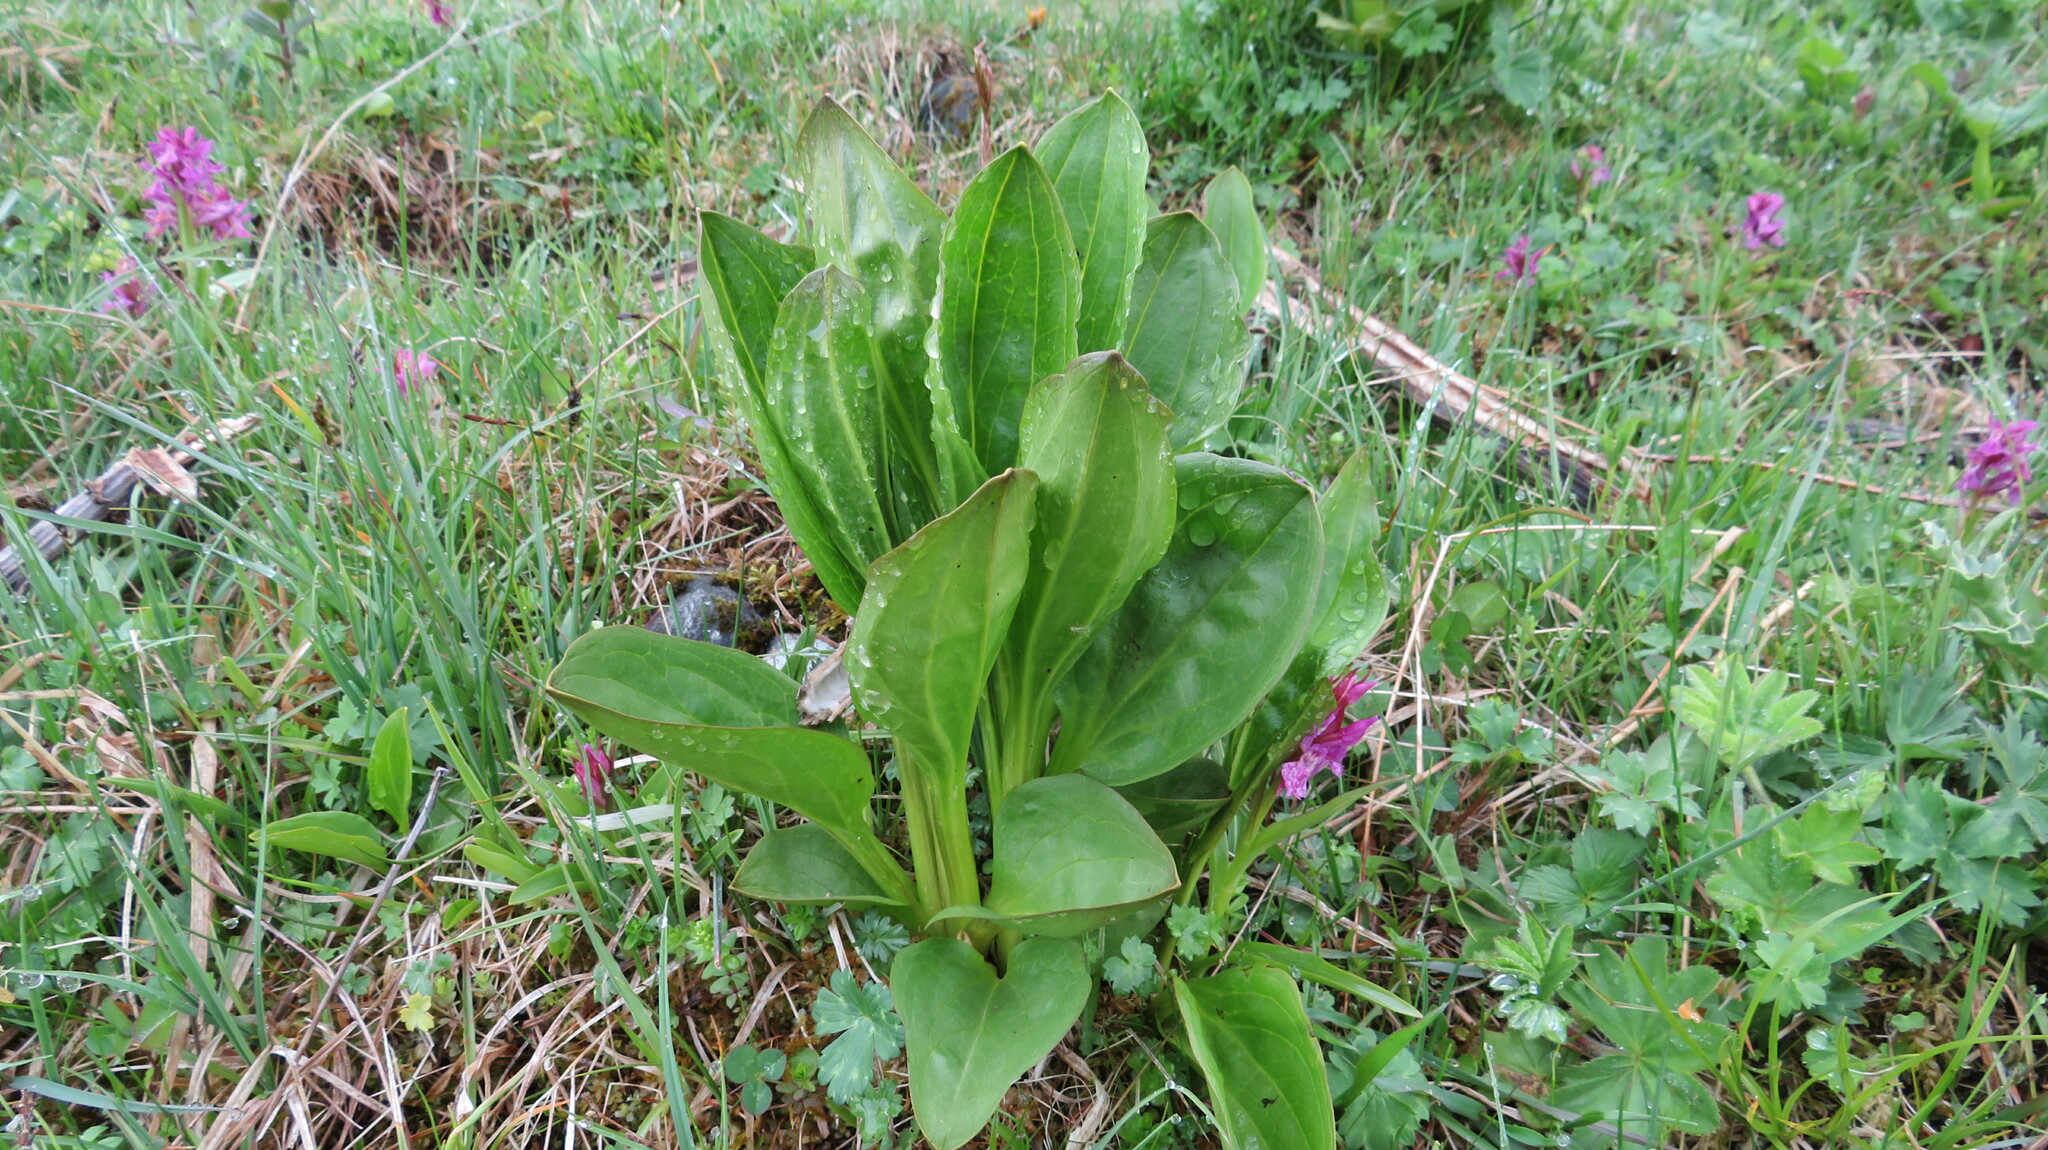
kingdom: Plantae
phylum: Tracheophyta
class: Magnoliopsida
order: Gentianales
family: Gentianaceae
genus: Swertia
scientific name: Swertia iberica
